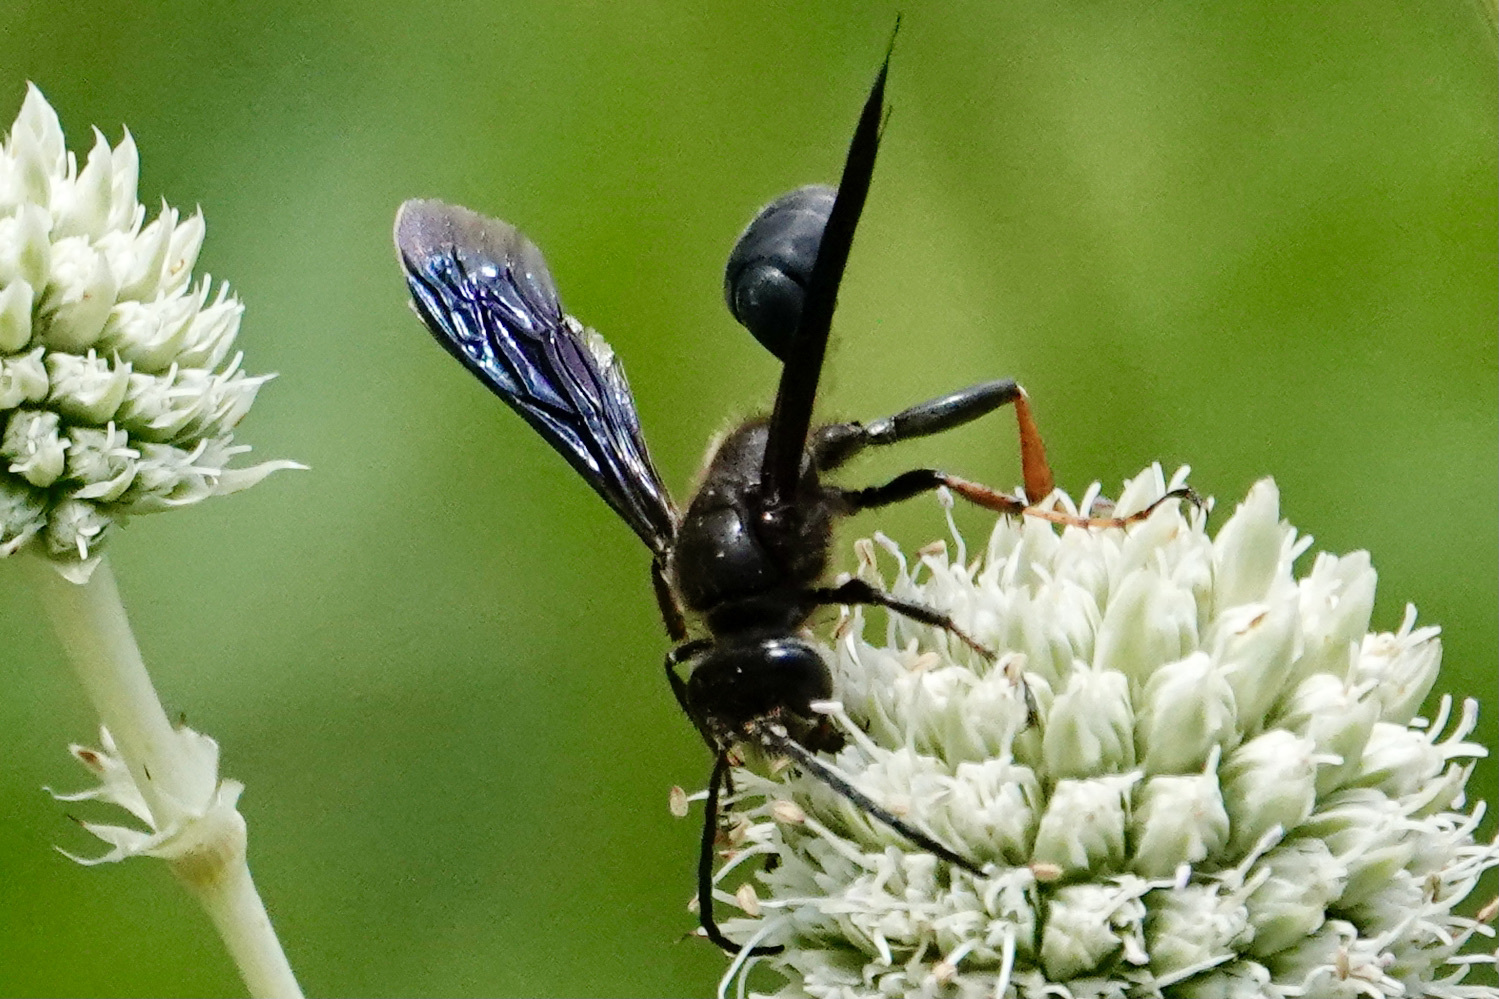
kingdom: Animalia
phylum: Arthropoda
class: Insecta
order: Hymenoptera
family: Sphecidae
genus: Isodontia
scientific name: Isodontia auripes
